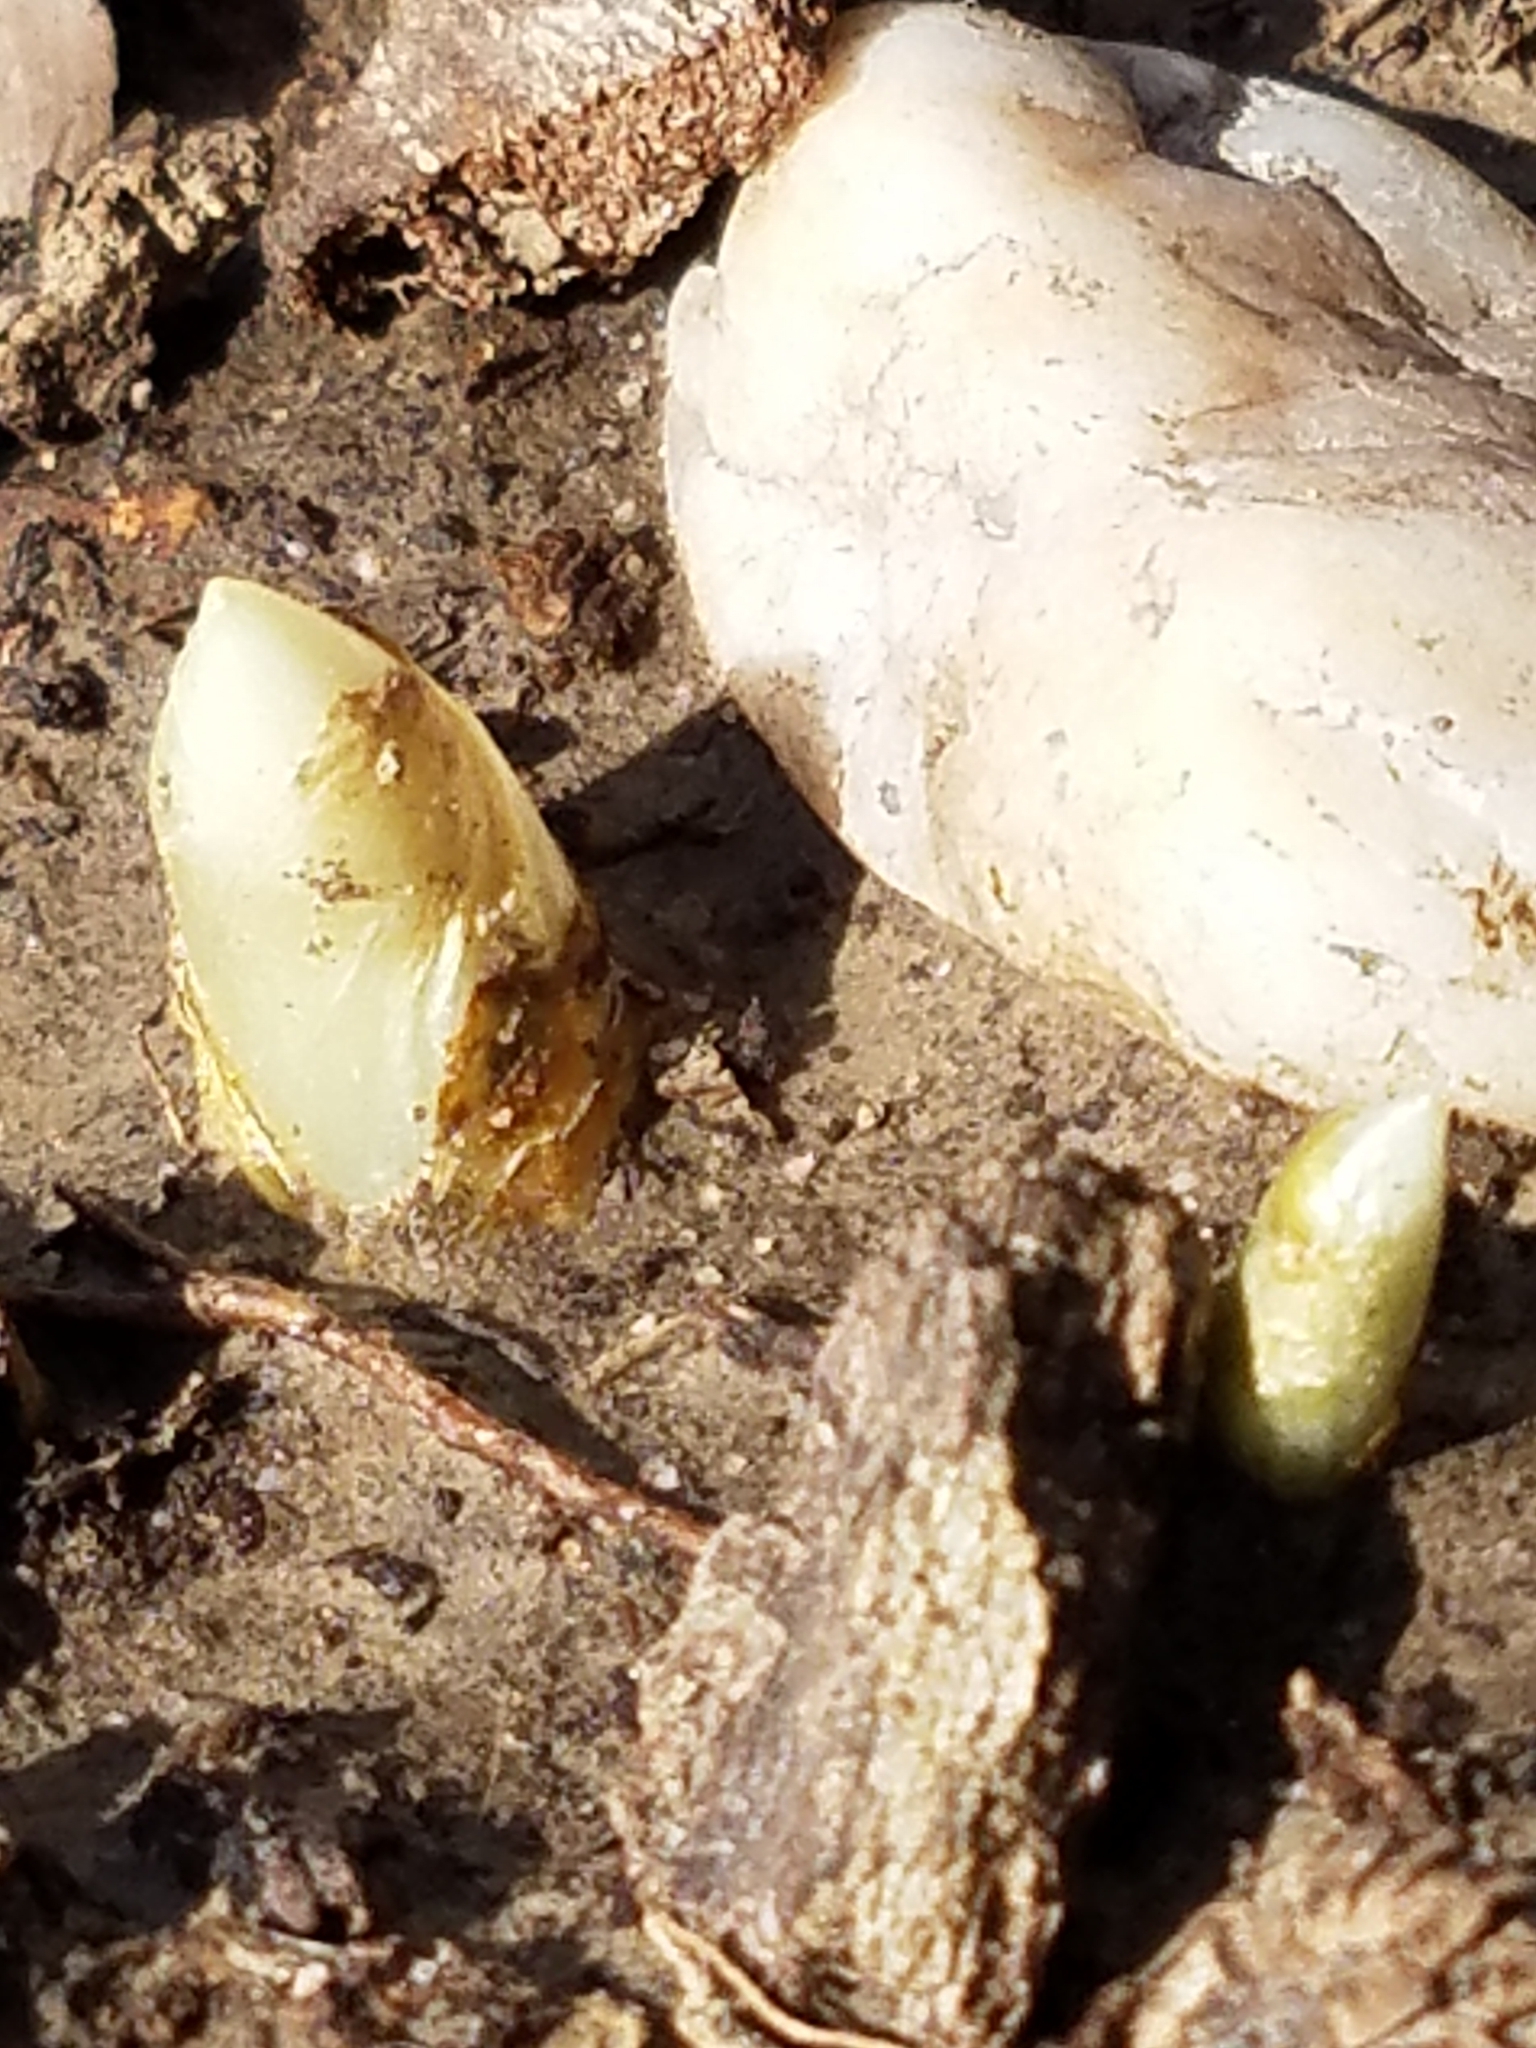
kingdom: Plantae
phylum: Tracheophyta
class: Magnoliopsida
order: Ranunculales
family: Berberidaceae
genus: Podophyllum
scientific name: Podophyllum peltatum
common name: Wild mandrake
